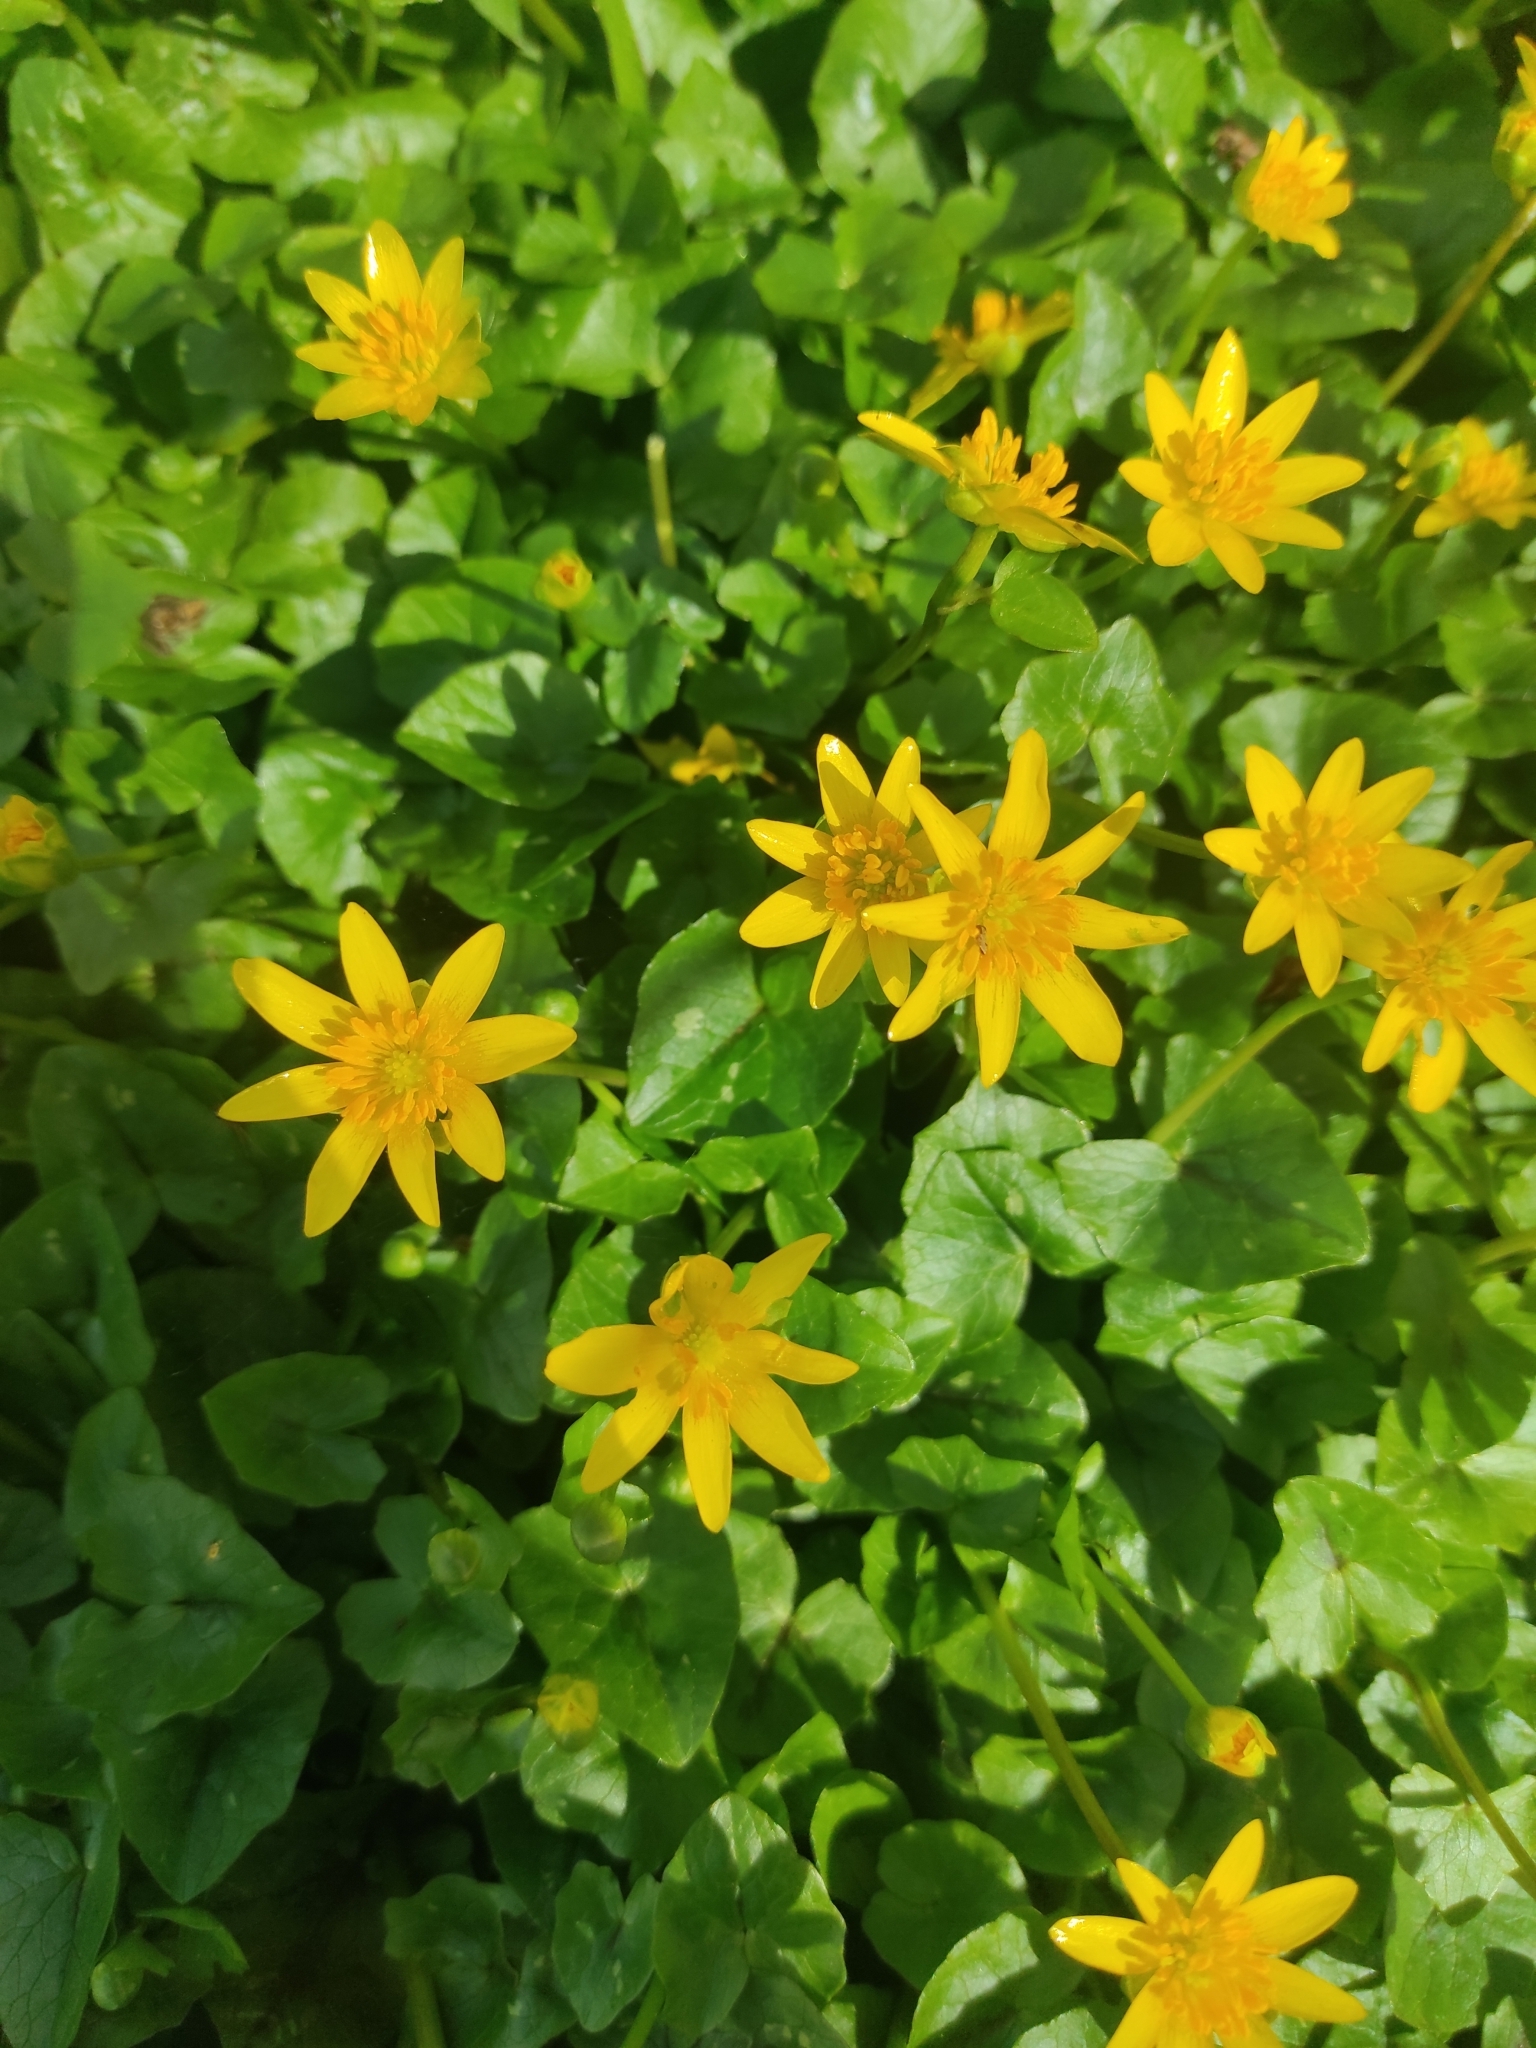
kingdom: Plantae
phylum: Tracheophyta
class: Magnoliopsida
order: Ranunculales
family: Ranunculaceae
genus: Ficaria
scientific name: Ficaria verna
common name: Lesser celandine
